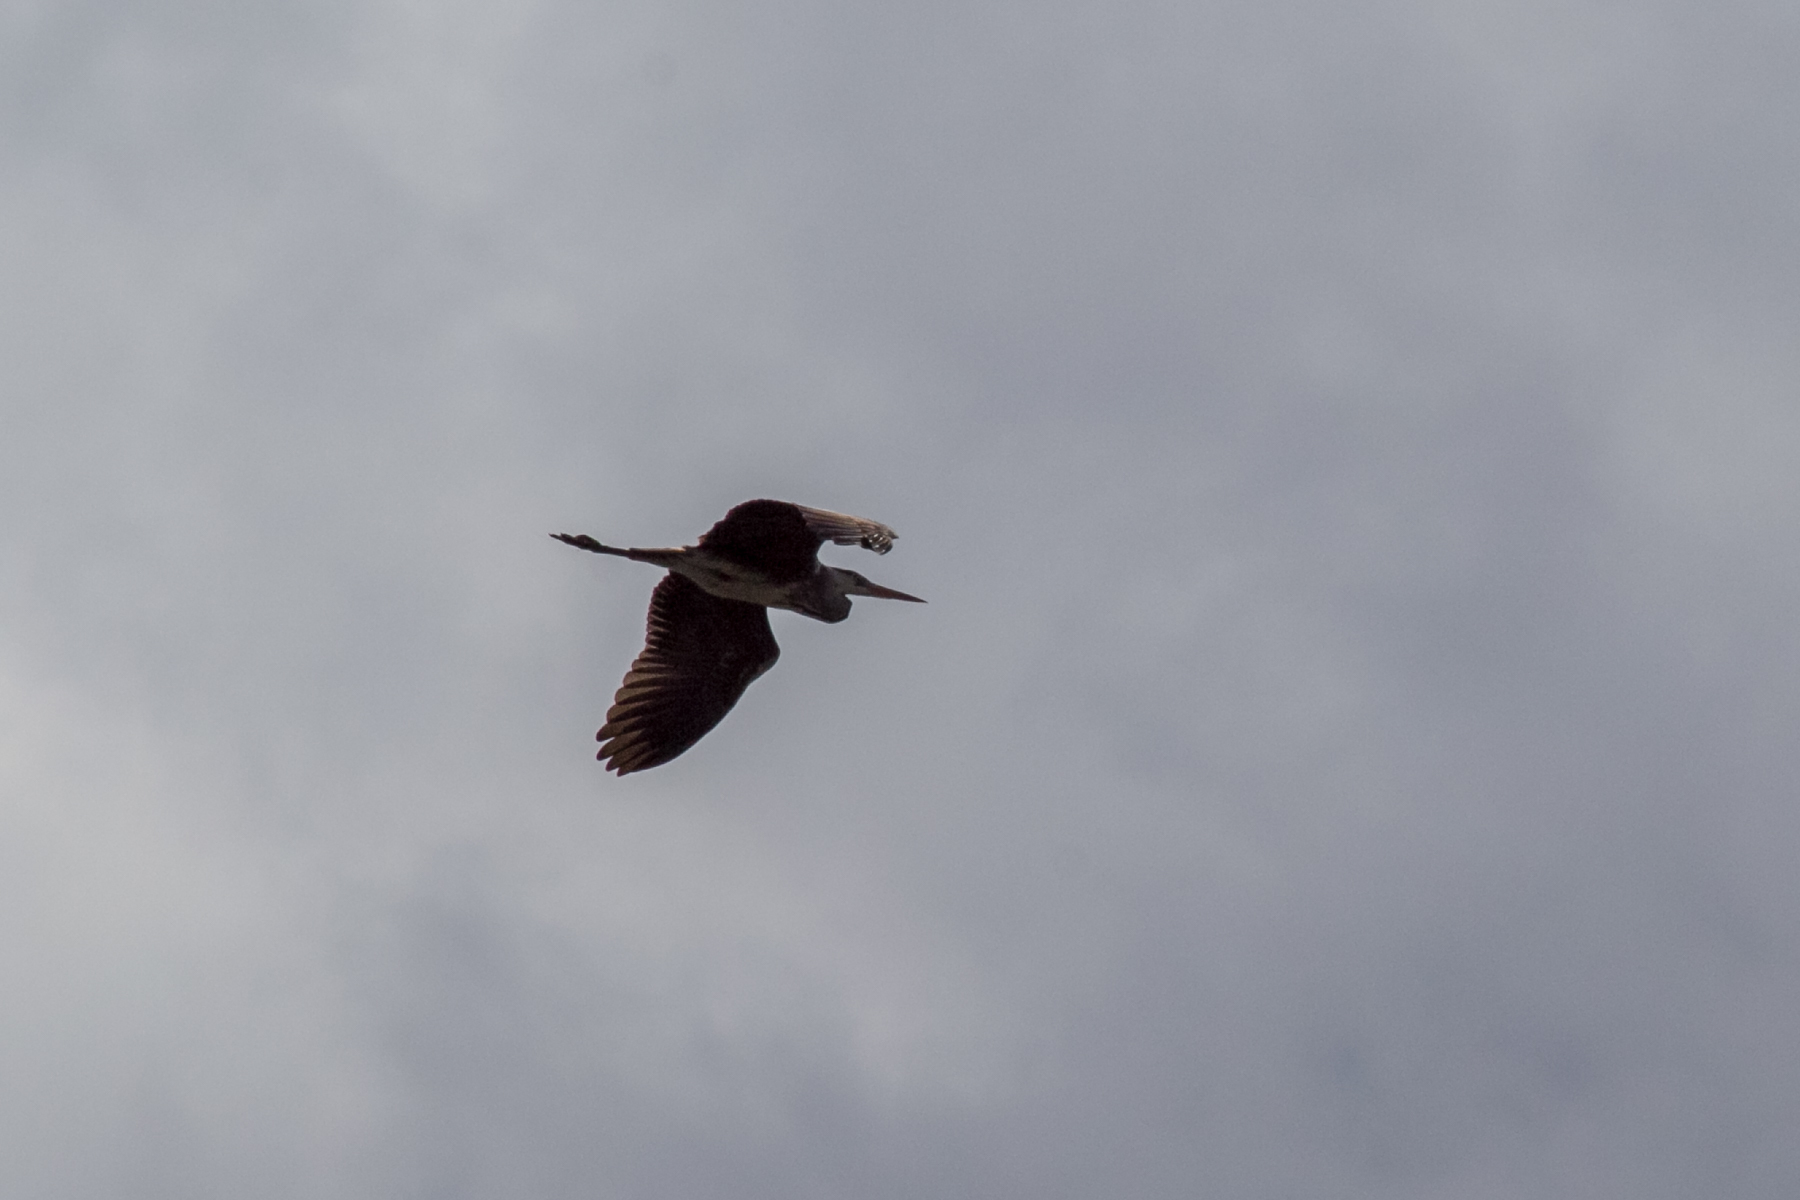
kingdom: Animalia
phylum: Chordata
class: Aves
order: Pelecaniformes
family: Ardeidae
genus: Ardea
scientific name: Ardea cinerea
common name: Grey heron
